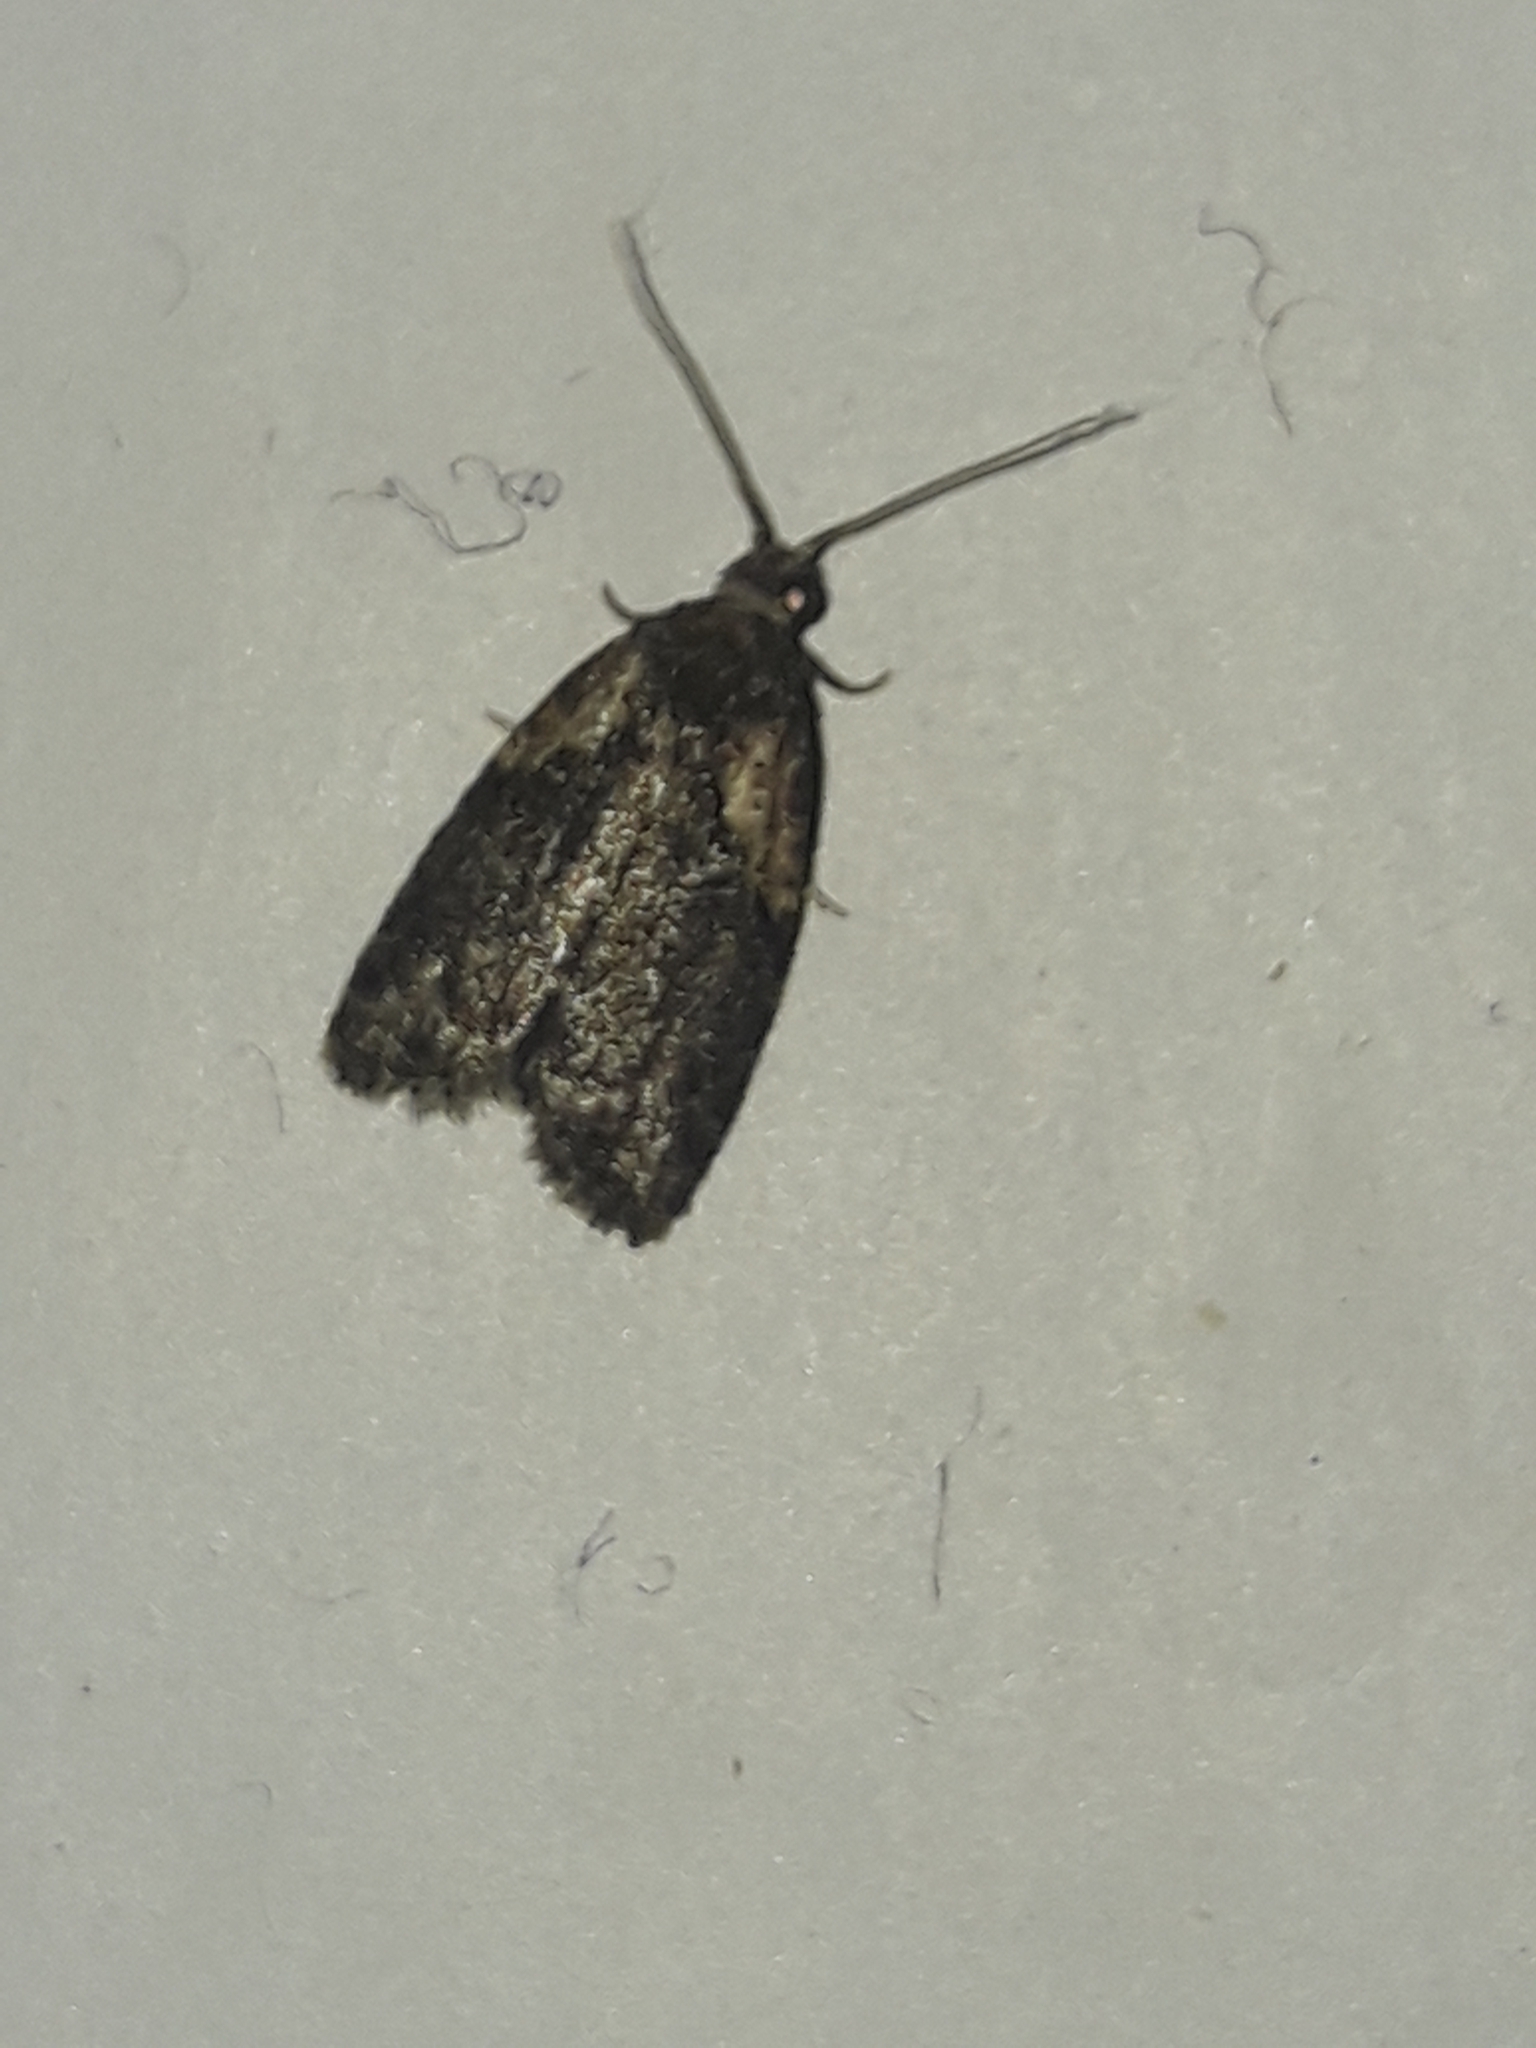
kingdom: Animalia
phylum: Arthropoda
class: Insecta
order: Lepidoptera
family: Tortricidae
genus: Capua
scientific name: Capua intractana
